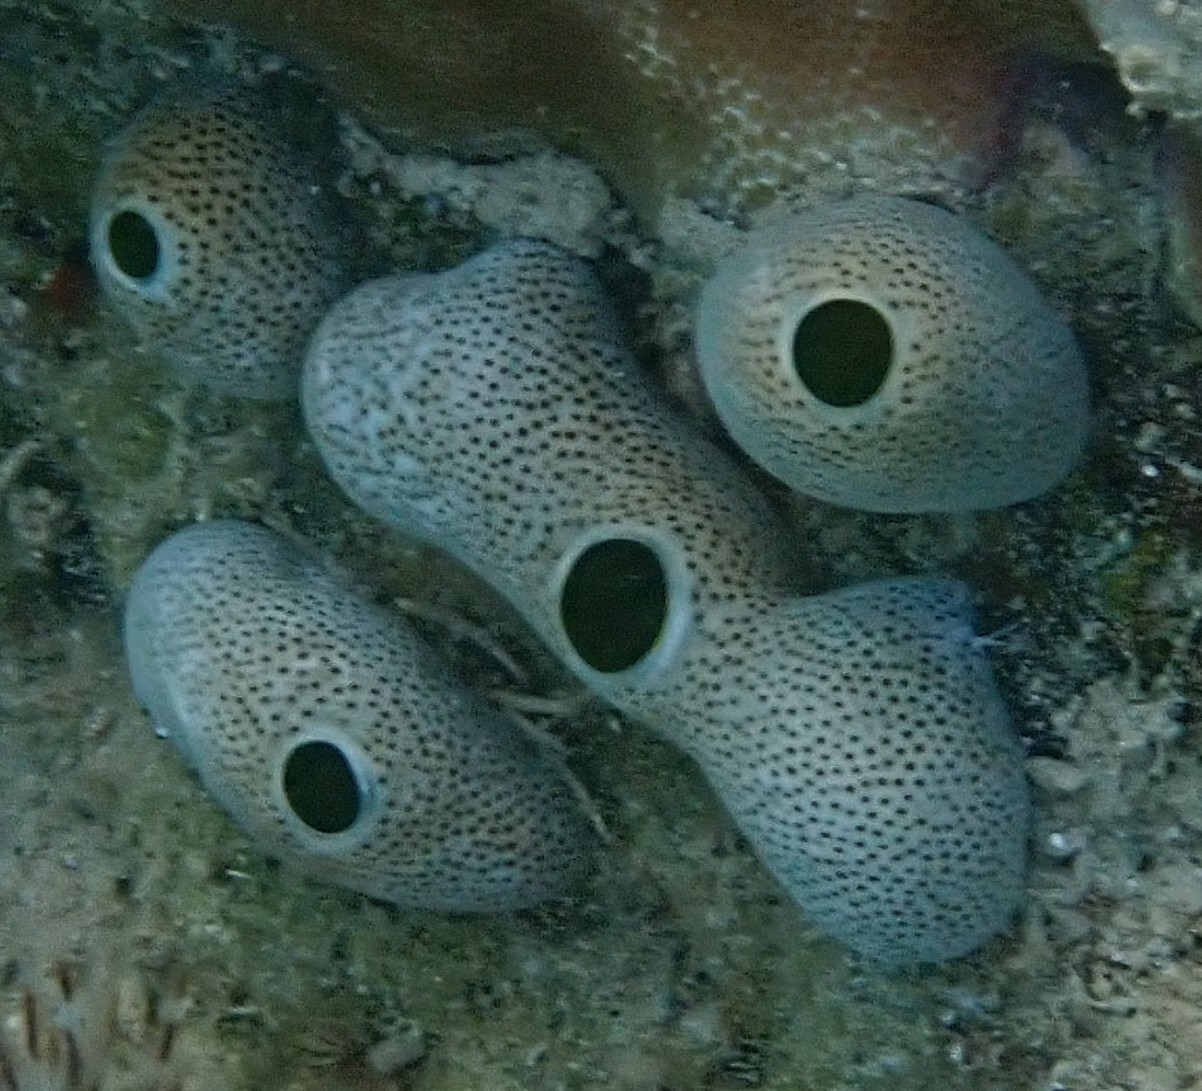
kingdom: Animalia
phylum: Chordata
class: Ascidiacea
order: Aplousobranchia
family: Didemnidae
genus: Didemnum
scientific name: Didemnum molle
